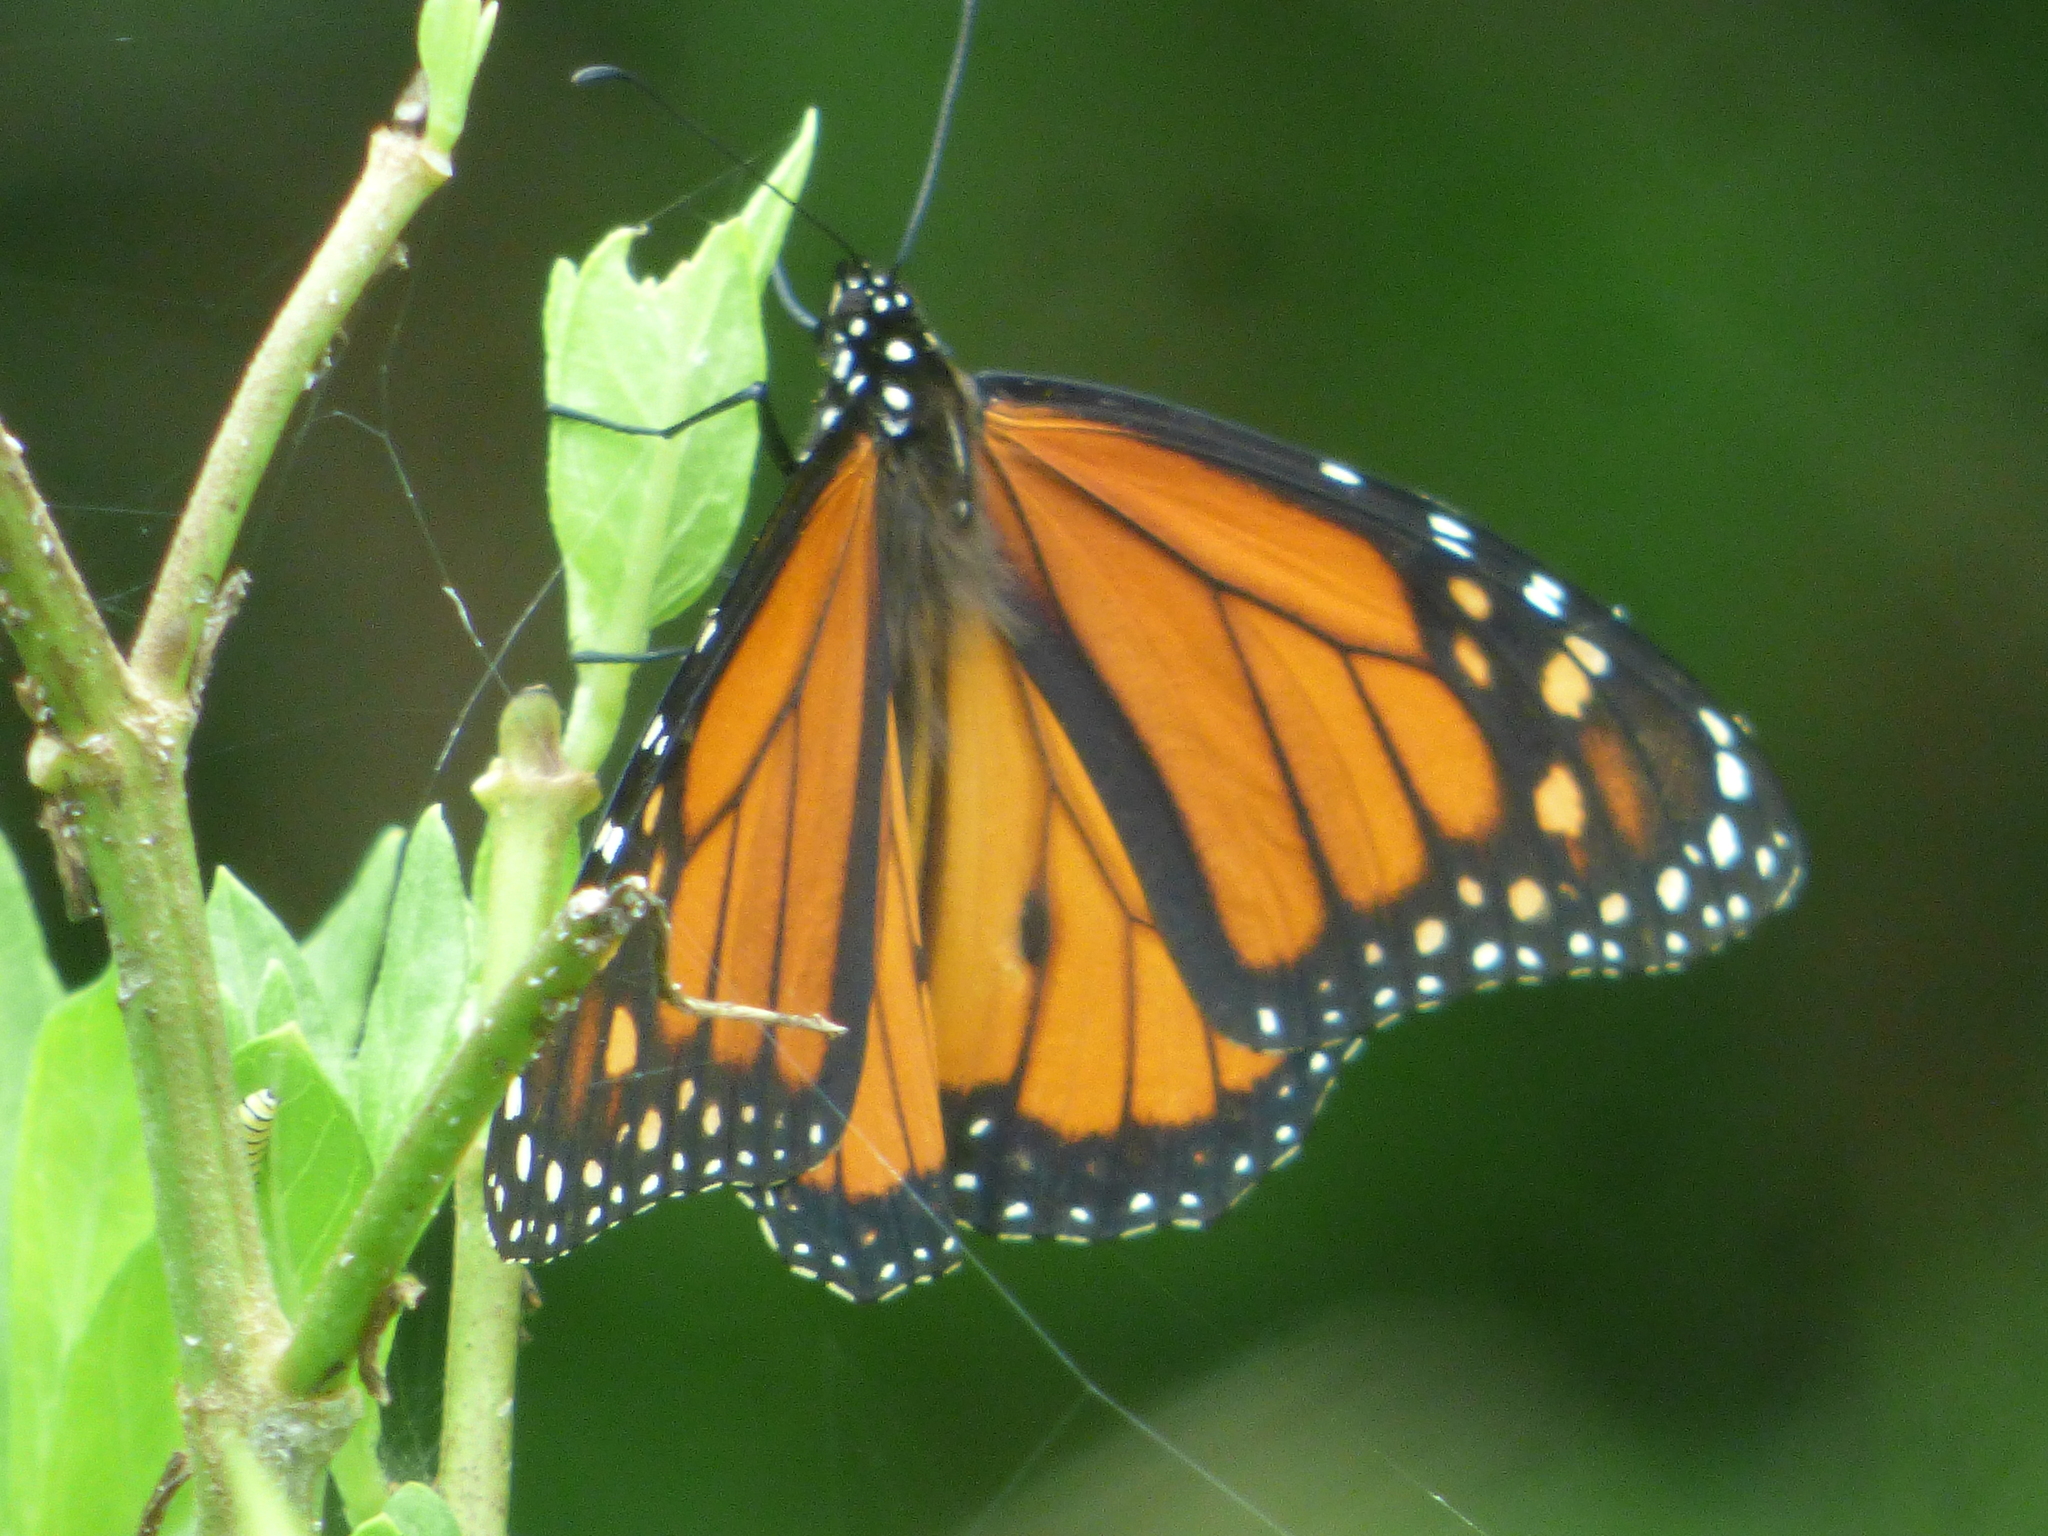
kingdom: Animalia
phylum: Arthropoda
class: Insecta
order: Lepidoptera
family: Nymphalidae
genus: Danaus
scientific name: Danaus plexippus
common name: Monarch
